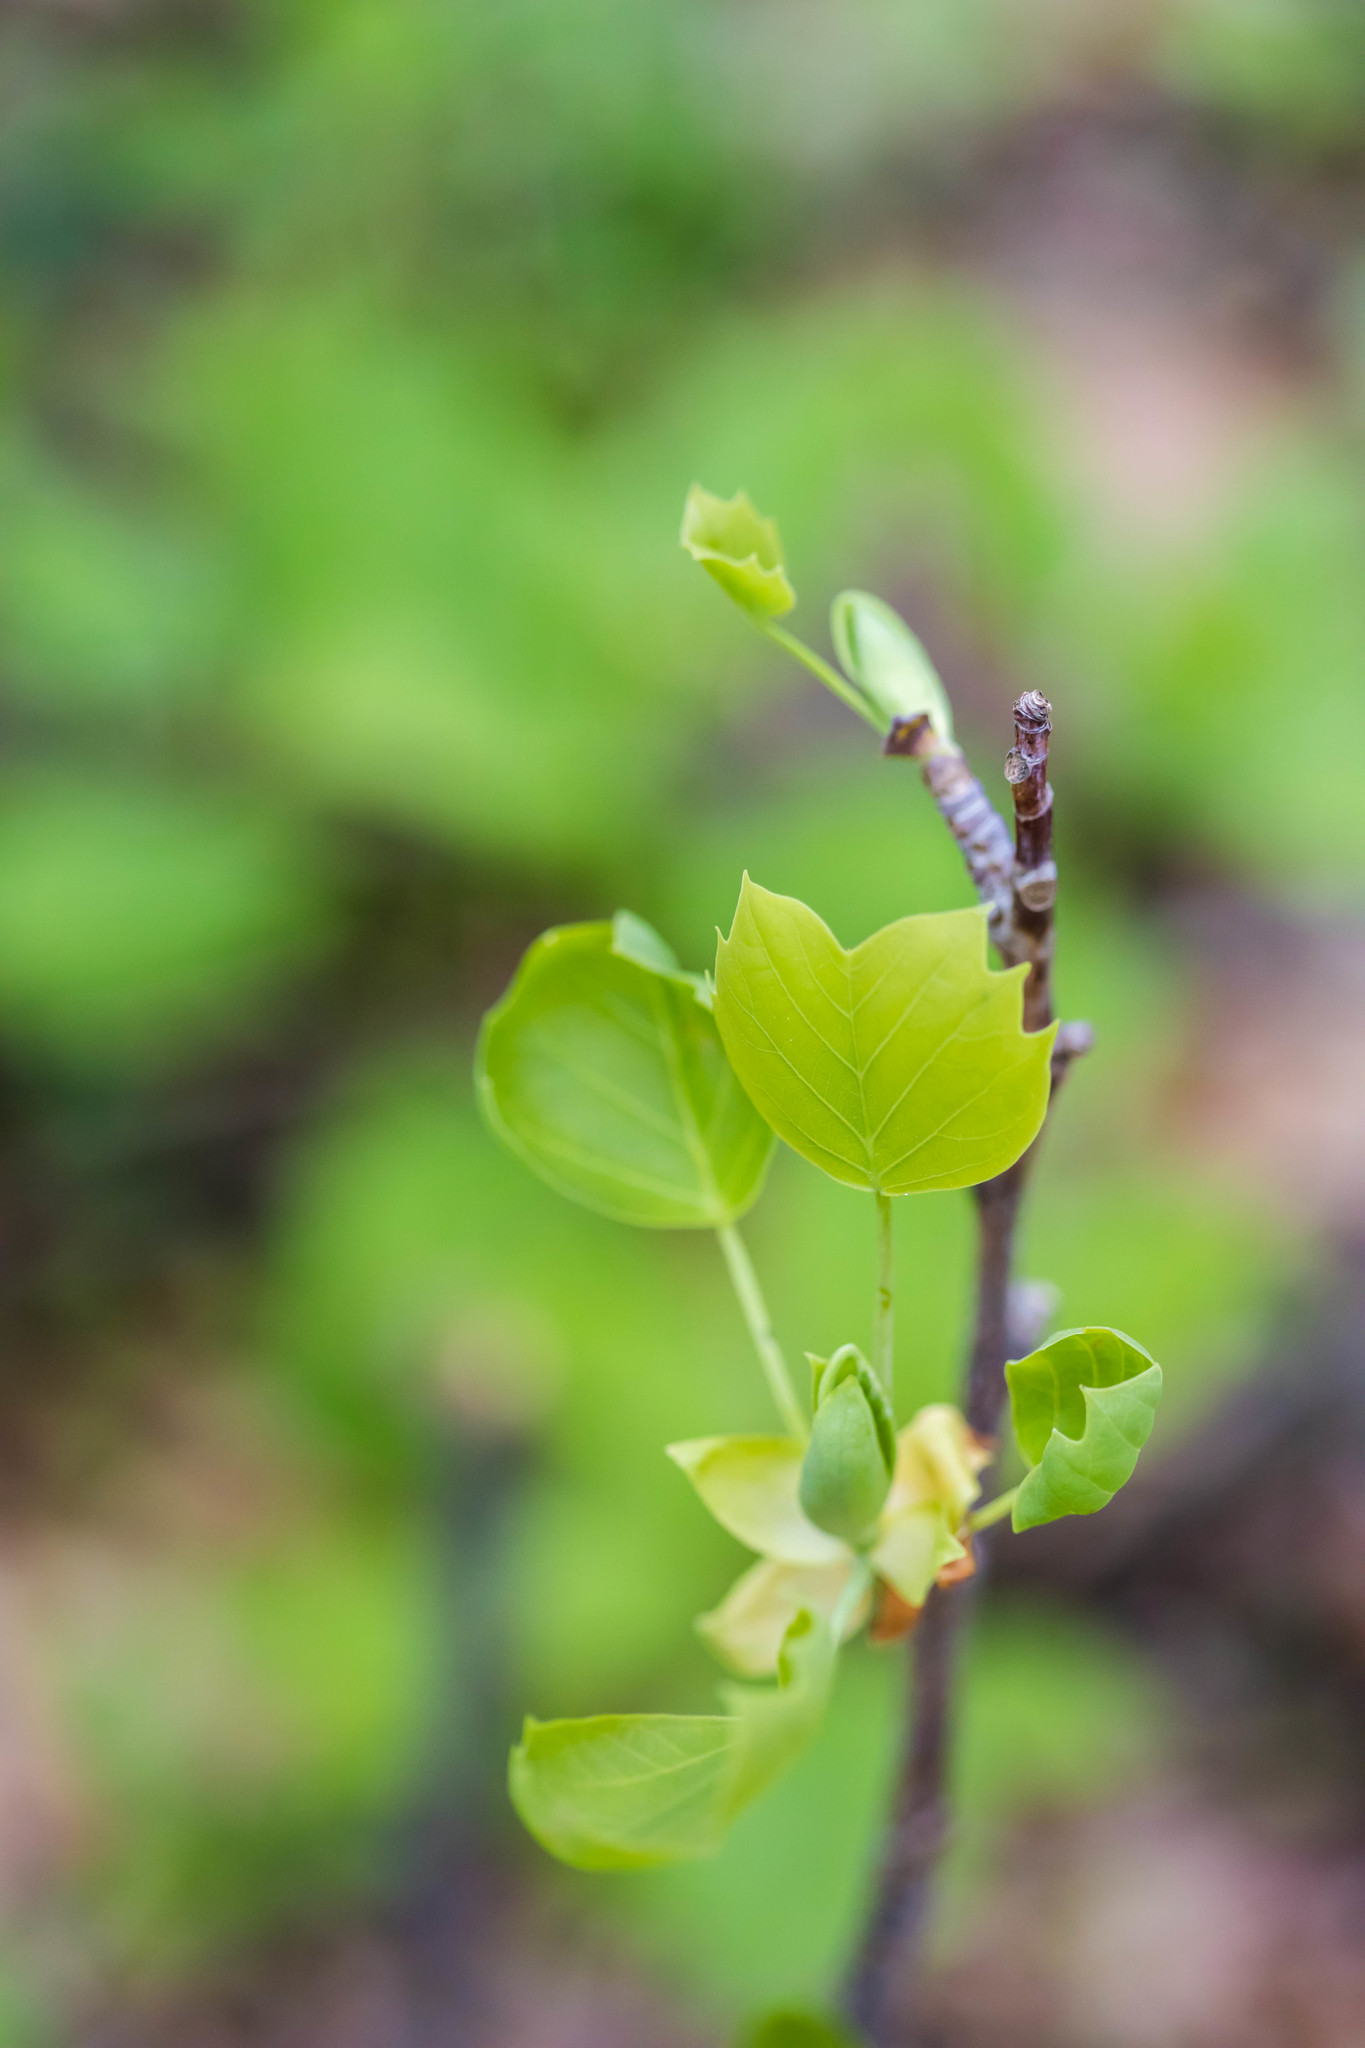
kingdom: Plantae
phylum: Tracheophyta
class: Magnoliopsida
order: Magnoliales
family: Magnoliaceae
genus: Liriodendron
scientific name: Liriodendron tulipifera
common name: Tulip tree
